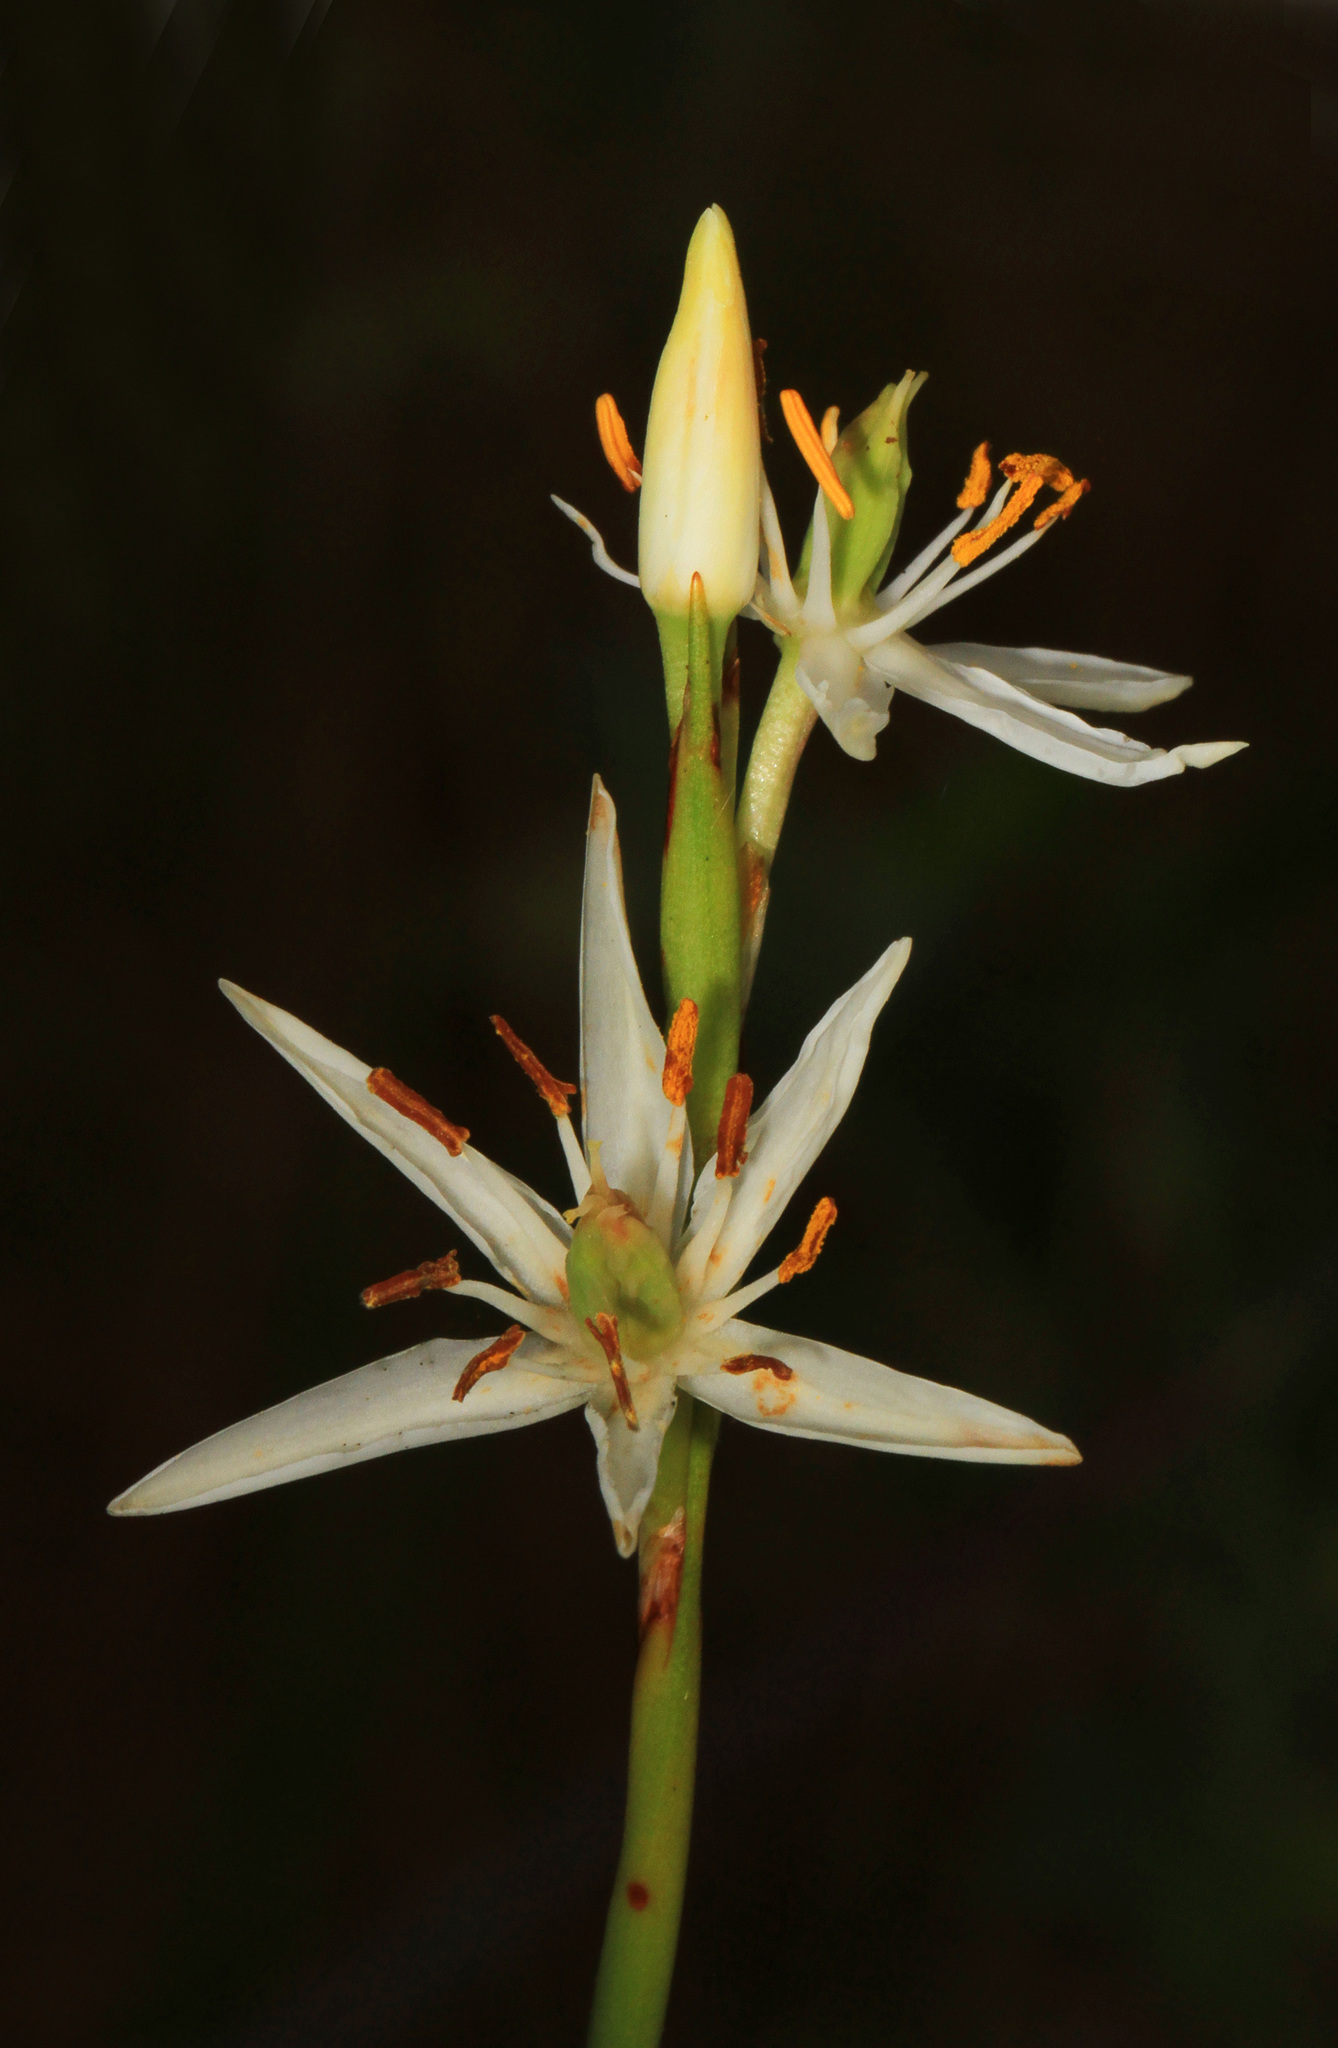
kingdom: Plantae
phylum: Tracheophyta
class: Liliopsida
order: Alismatales
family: Tofieldiaceae
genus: Pleea
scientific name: Pleea tenuifolia
